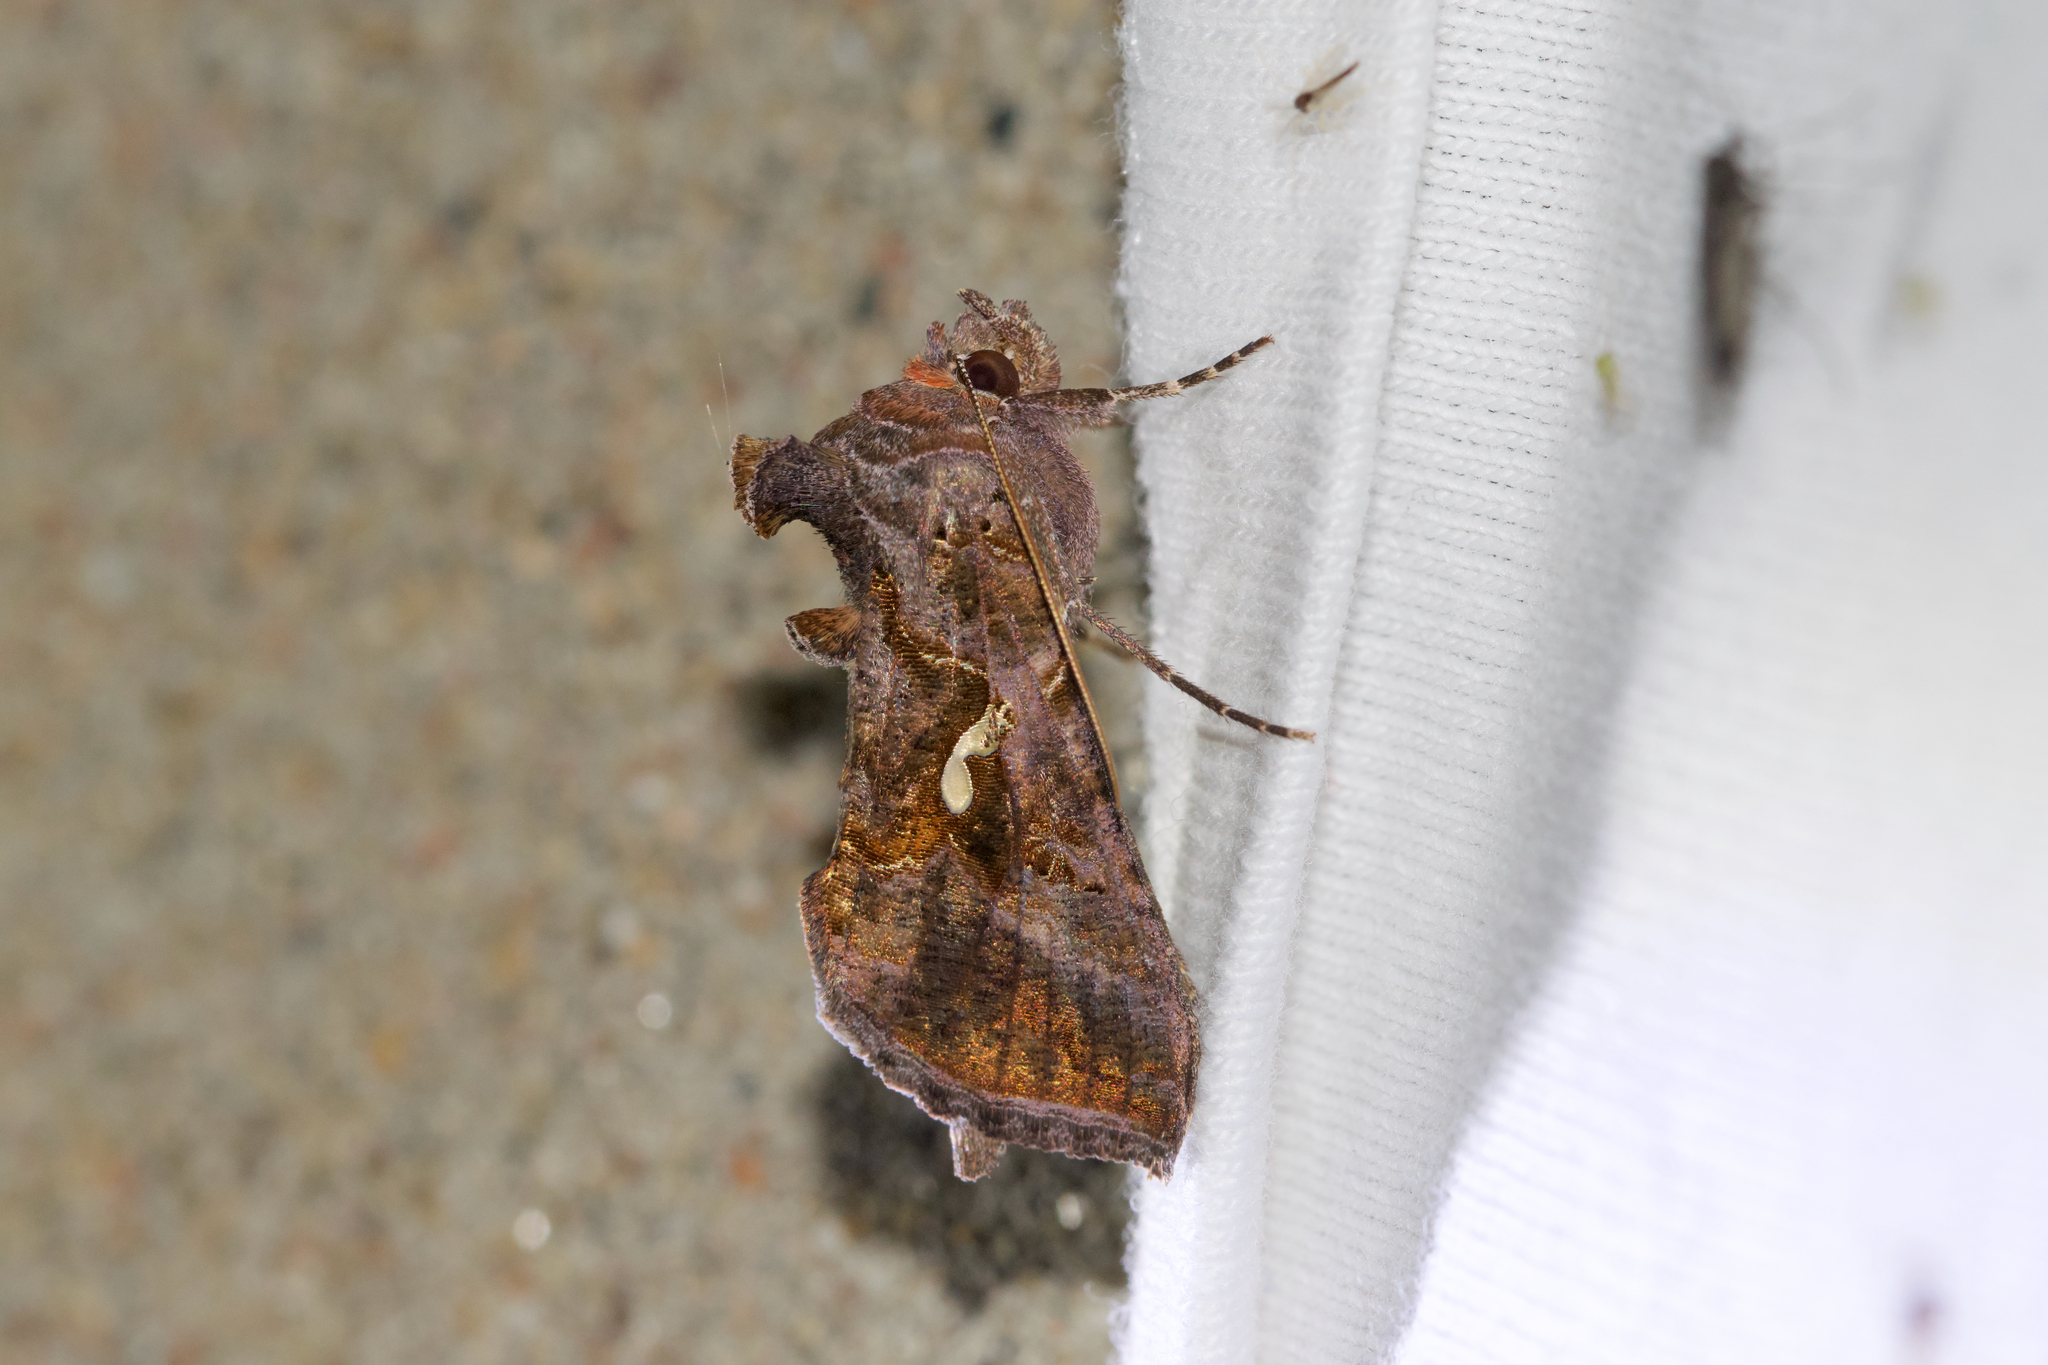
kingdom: Animalia
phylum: Arthropoda
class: Insecta
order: Lepidoptera
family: Noctuidae
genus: Autographa
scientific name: Autographa precationis
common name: Common looper moth
